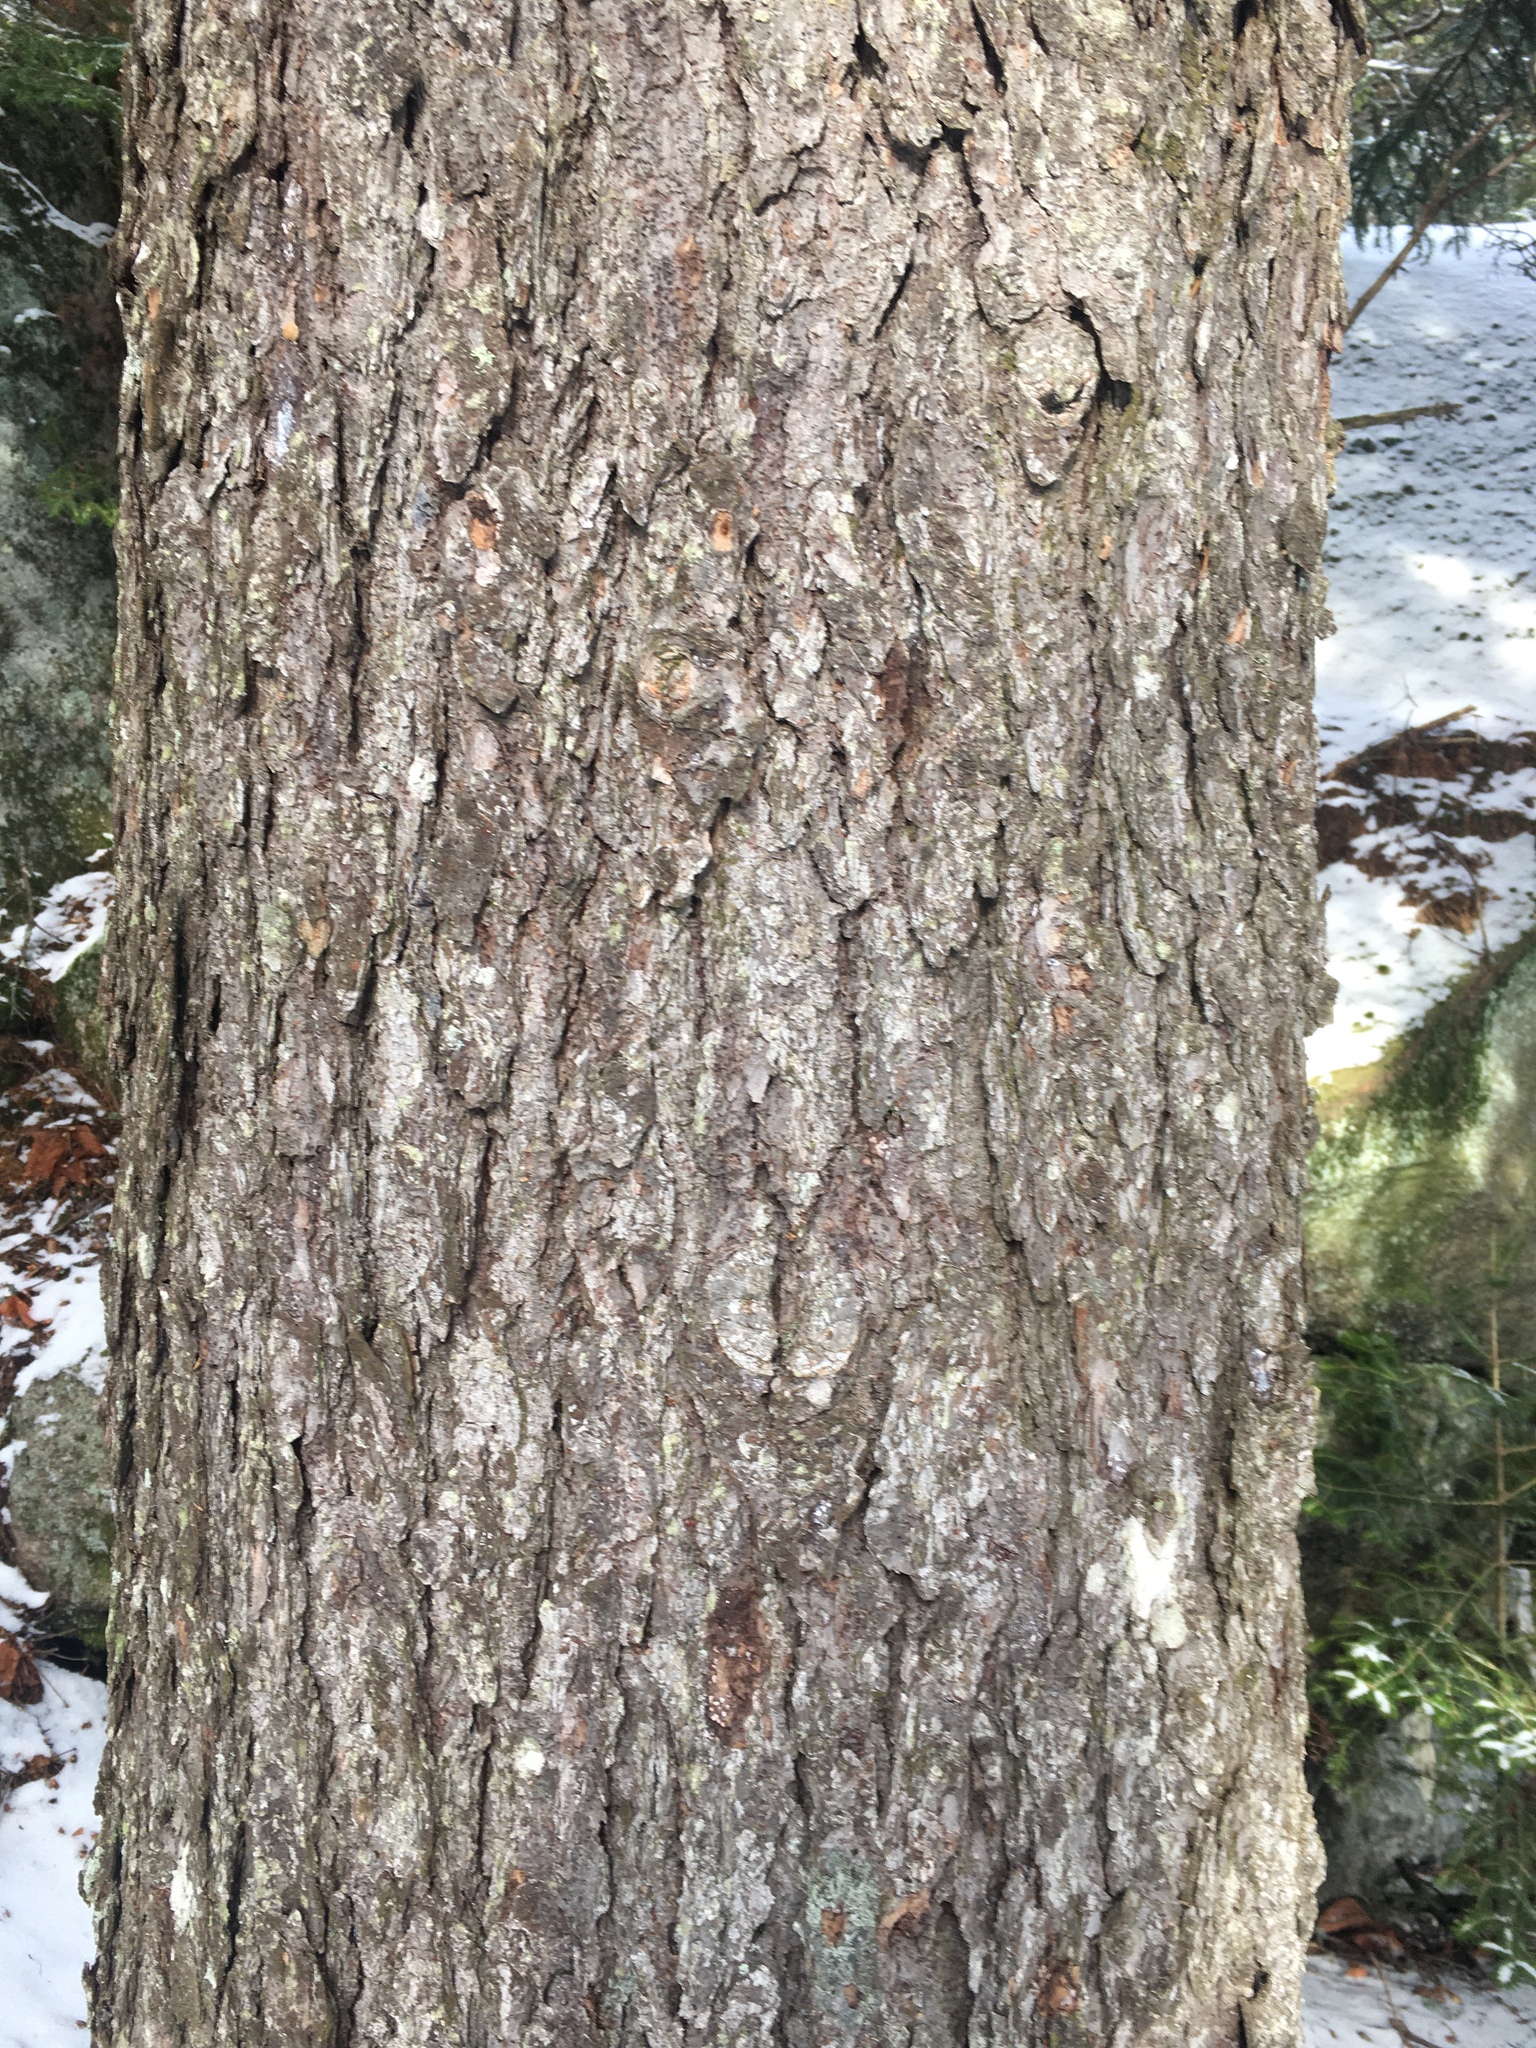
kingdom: Plantae
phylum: Tracheophyta
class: Pinopsida
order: Pinales
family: Pinaceae
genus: Picea
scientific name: Picea rubens
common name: Red spruce
